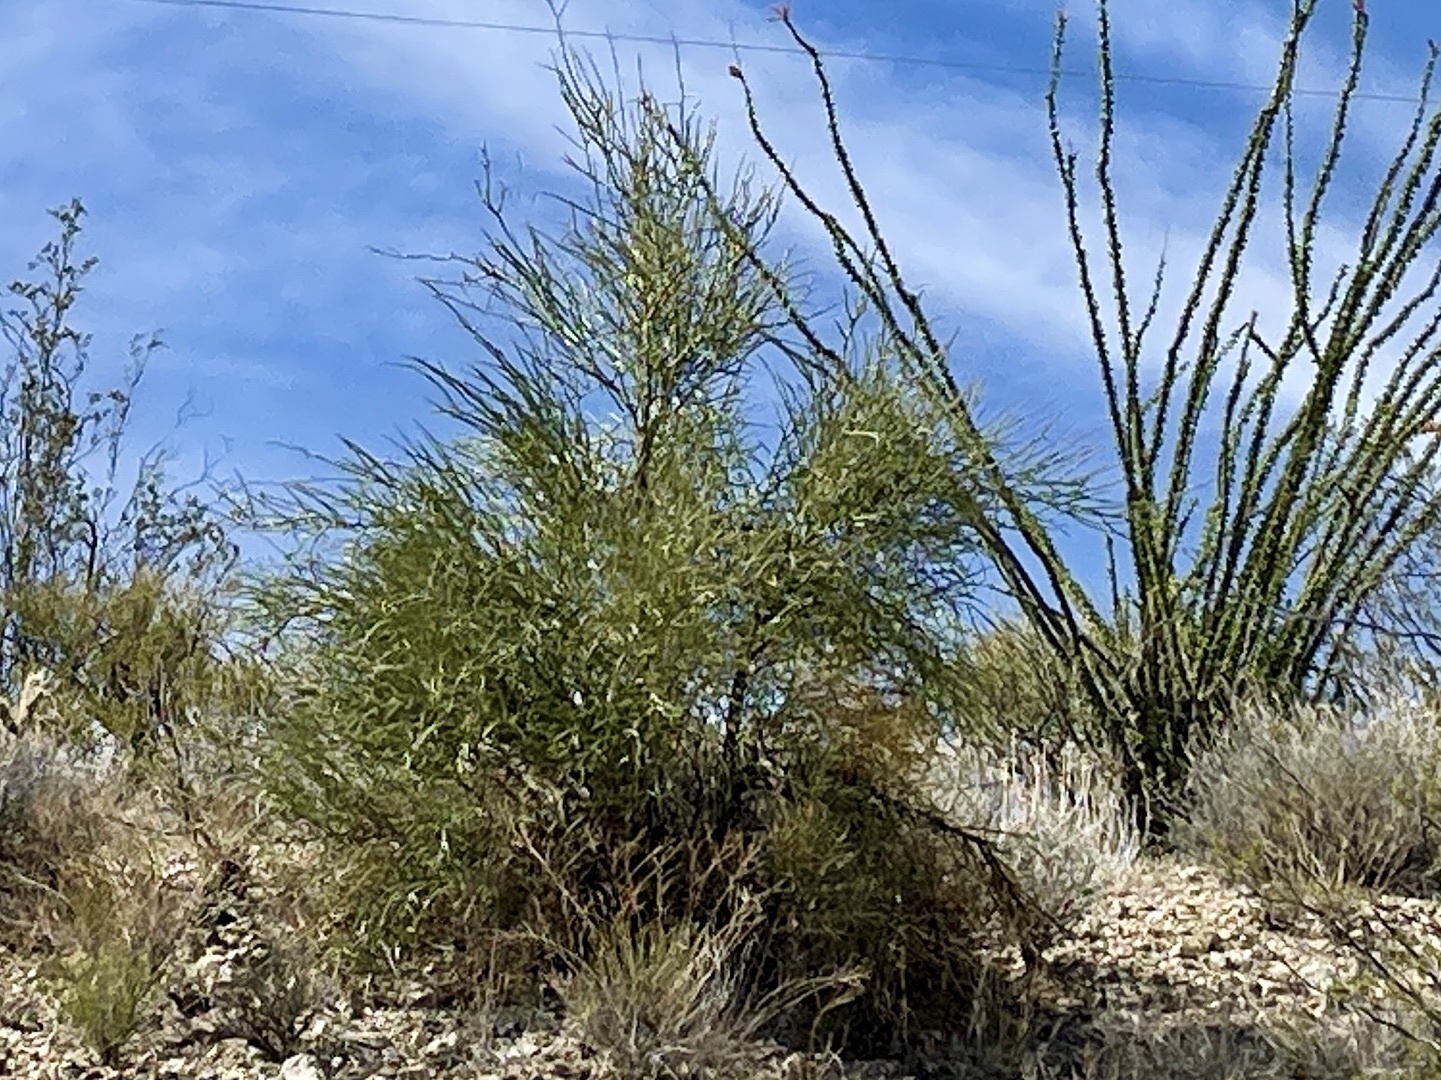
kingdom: Plantae
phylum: Tracheophyta
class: Magnoliopsida
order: Celastrales
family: Celastraceae
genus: Canotia
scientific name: Canotia holacantha
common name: Crucifixion thorns
